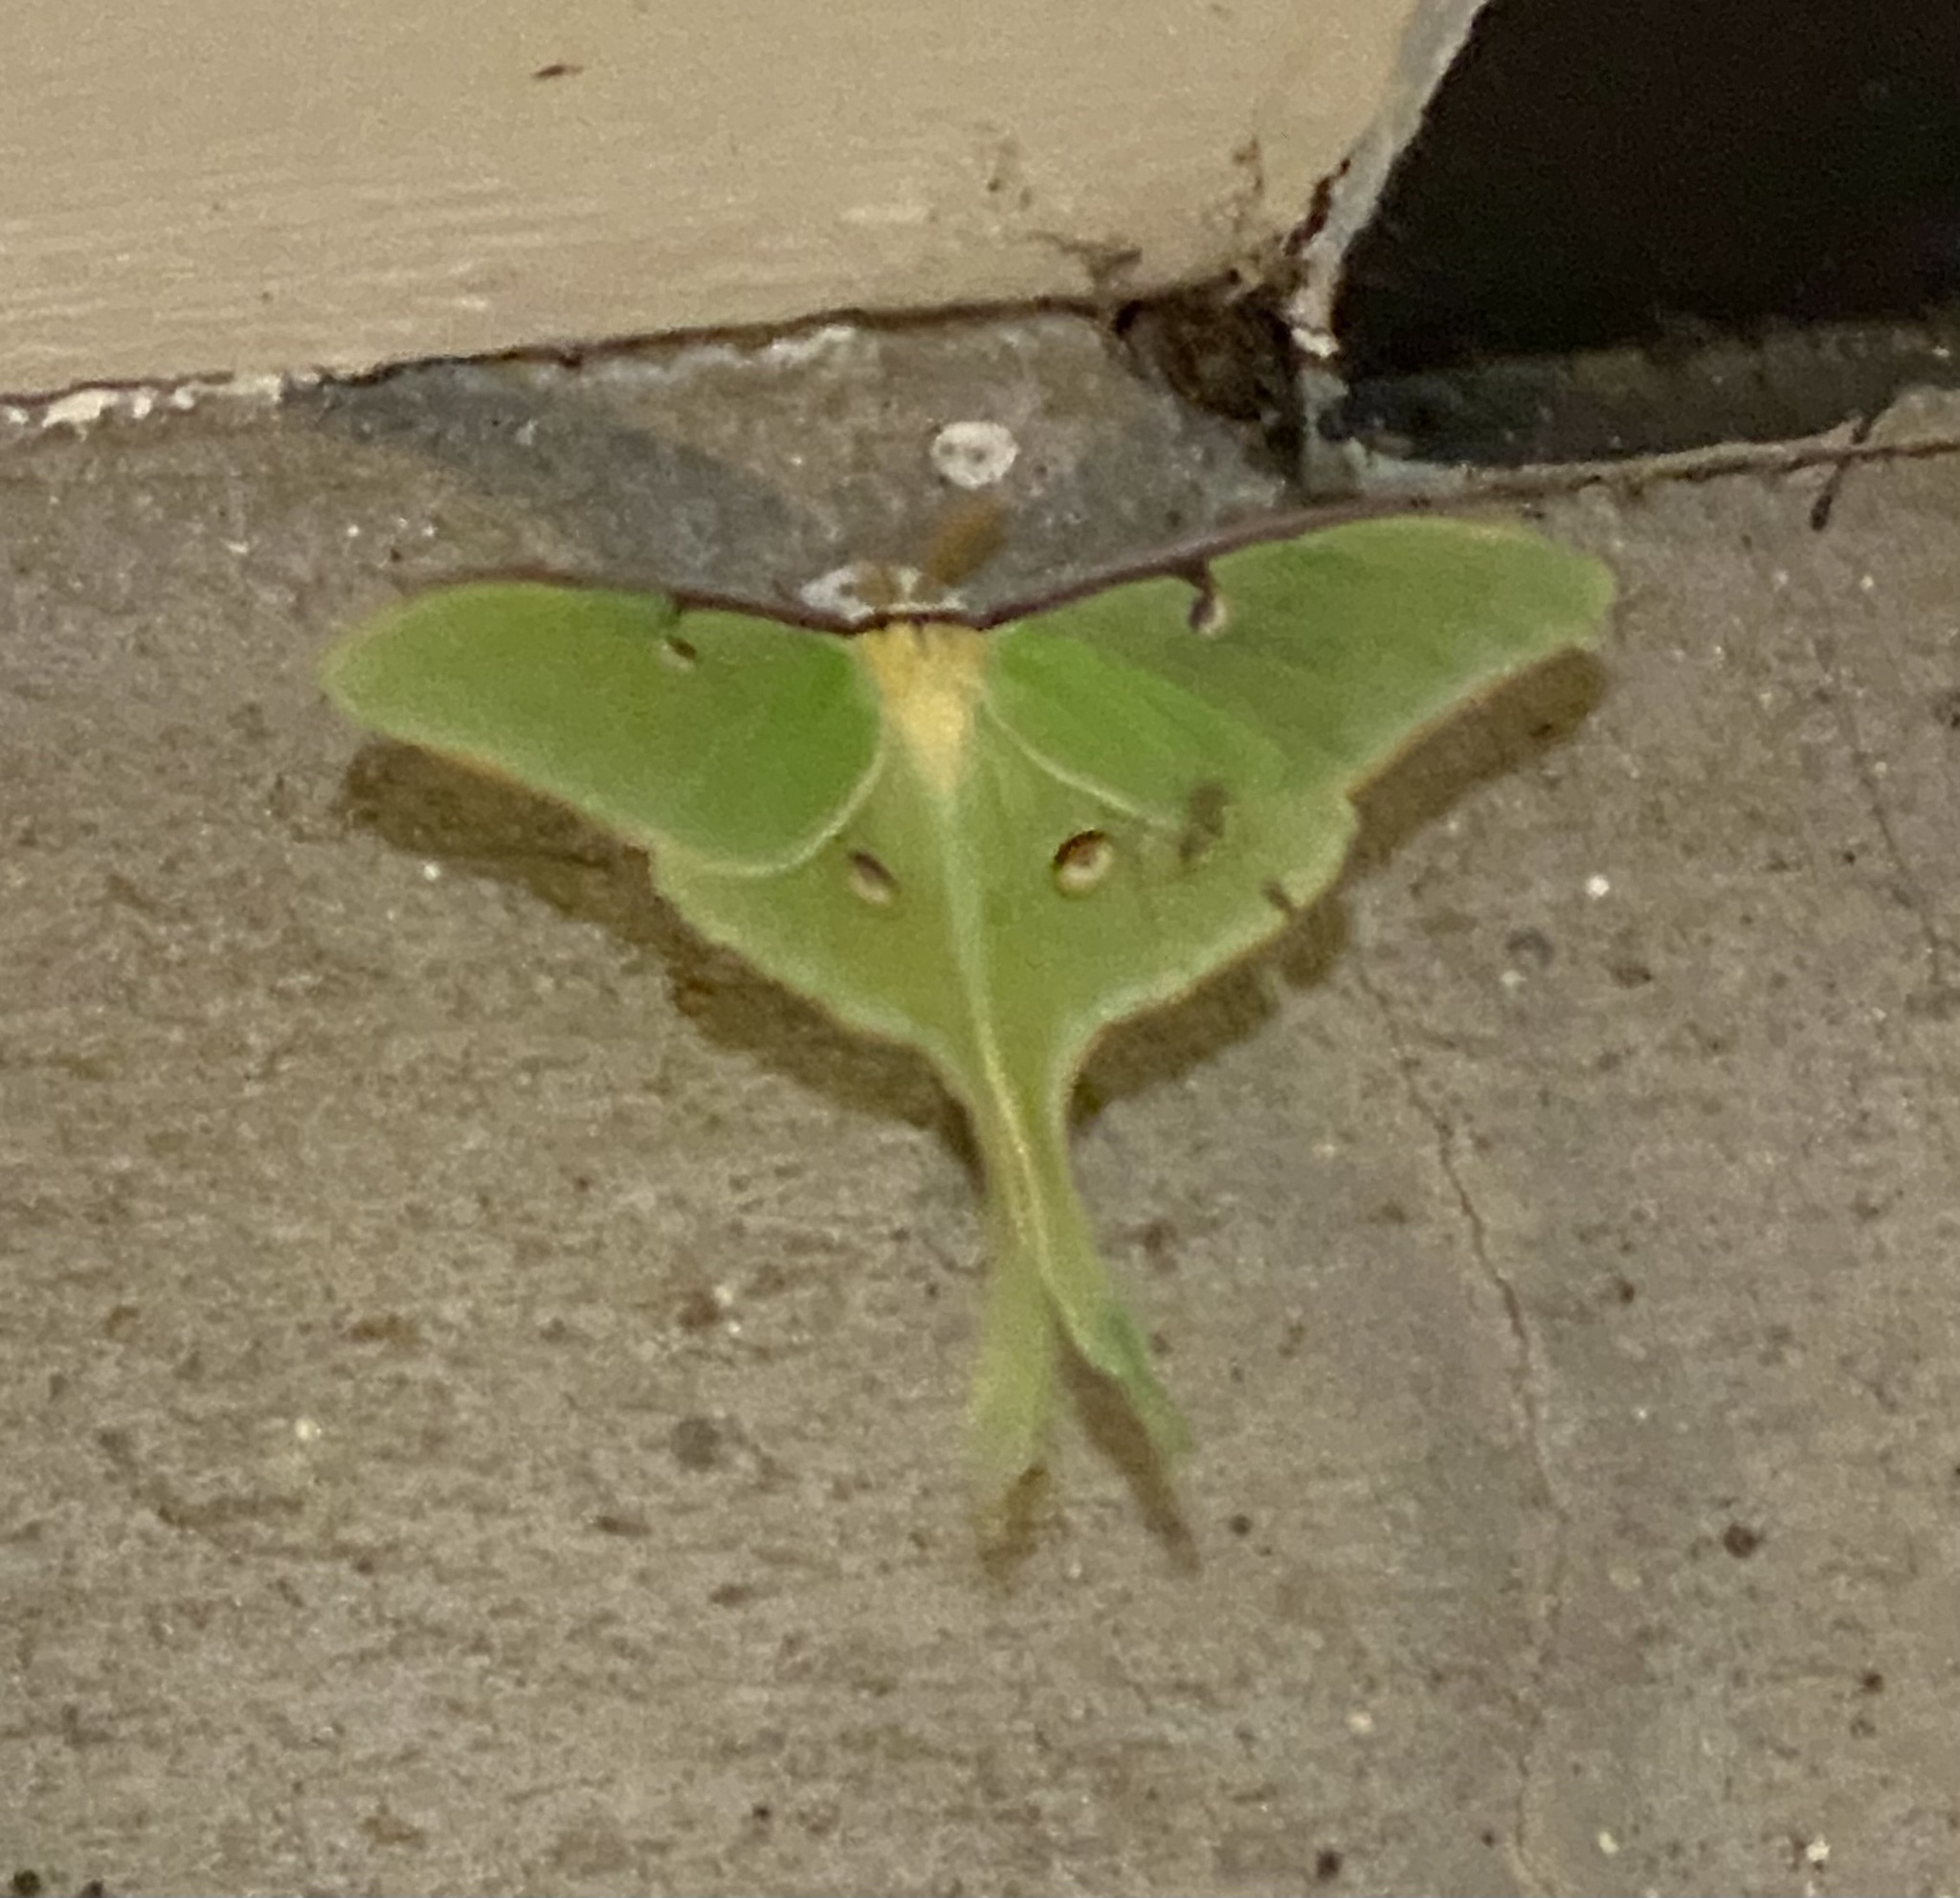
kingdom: Animalia
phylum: Arthropoda
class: Insecta
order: Lepidoptera
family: Saturniidae
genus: Actias
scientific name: Actias luna
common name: Luna moth
